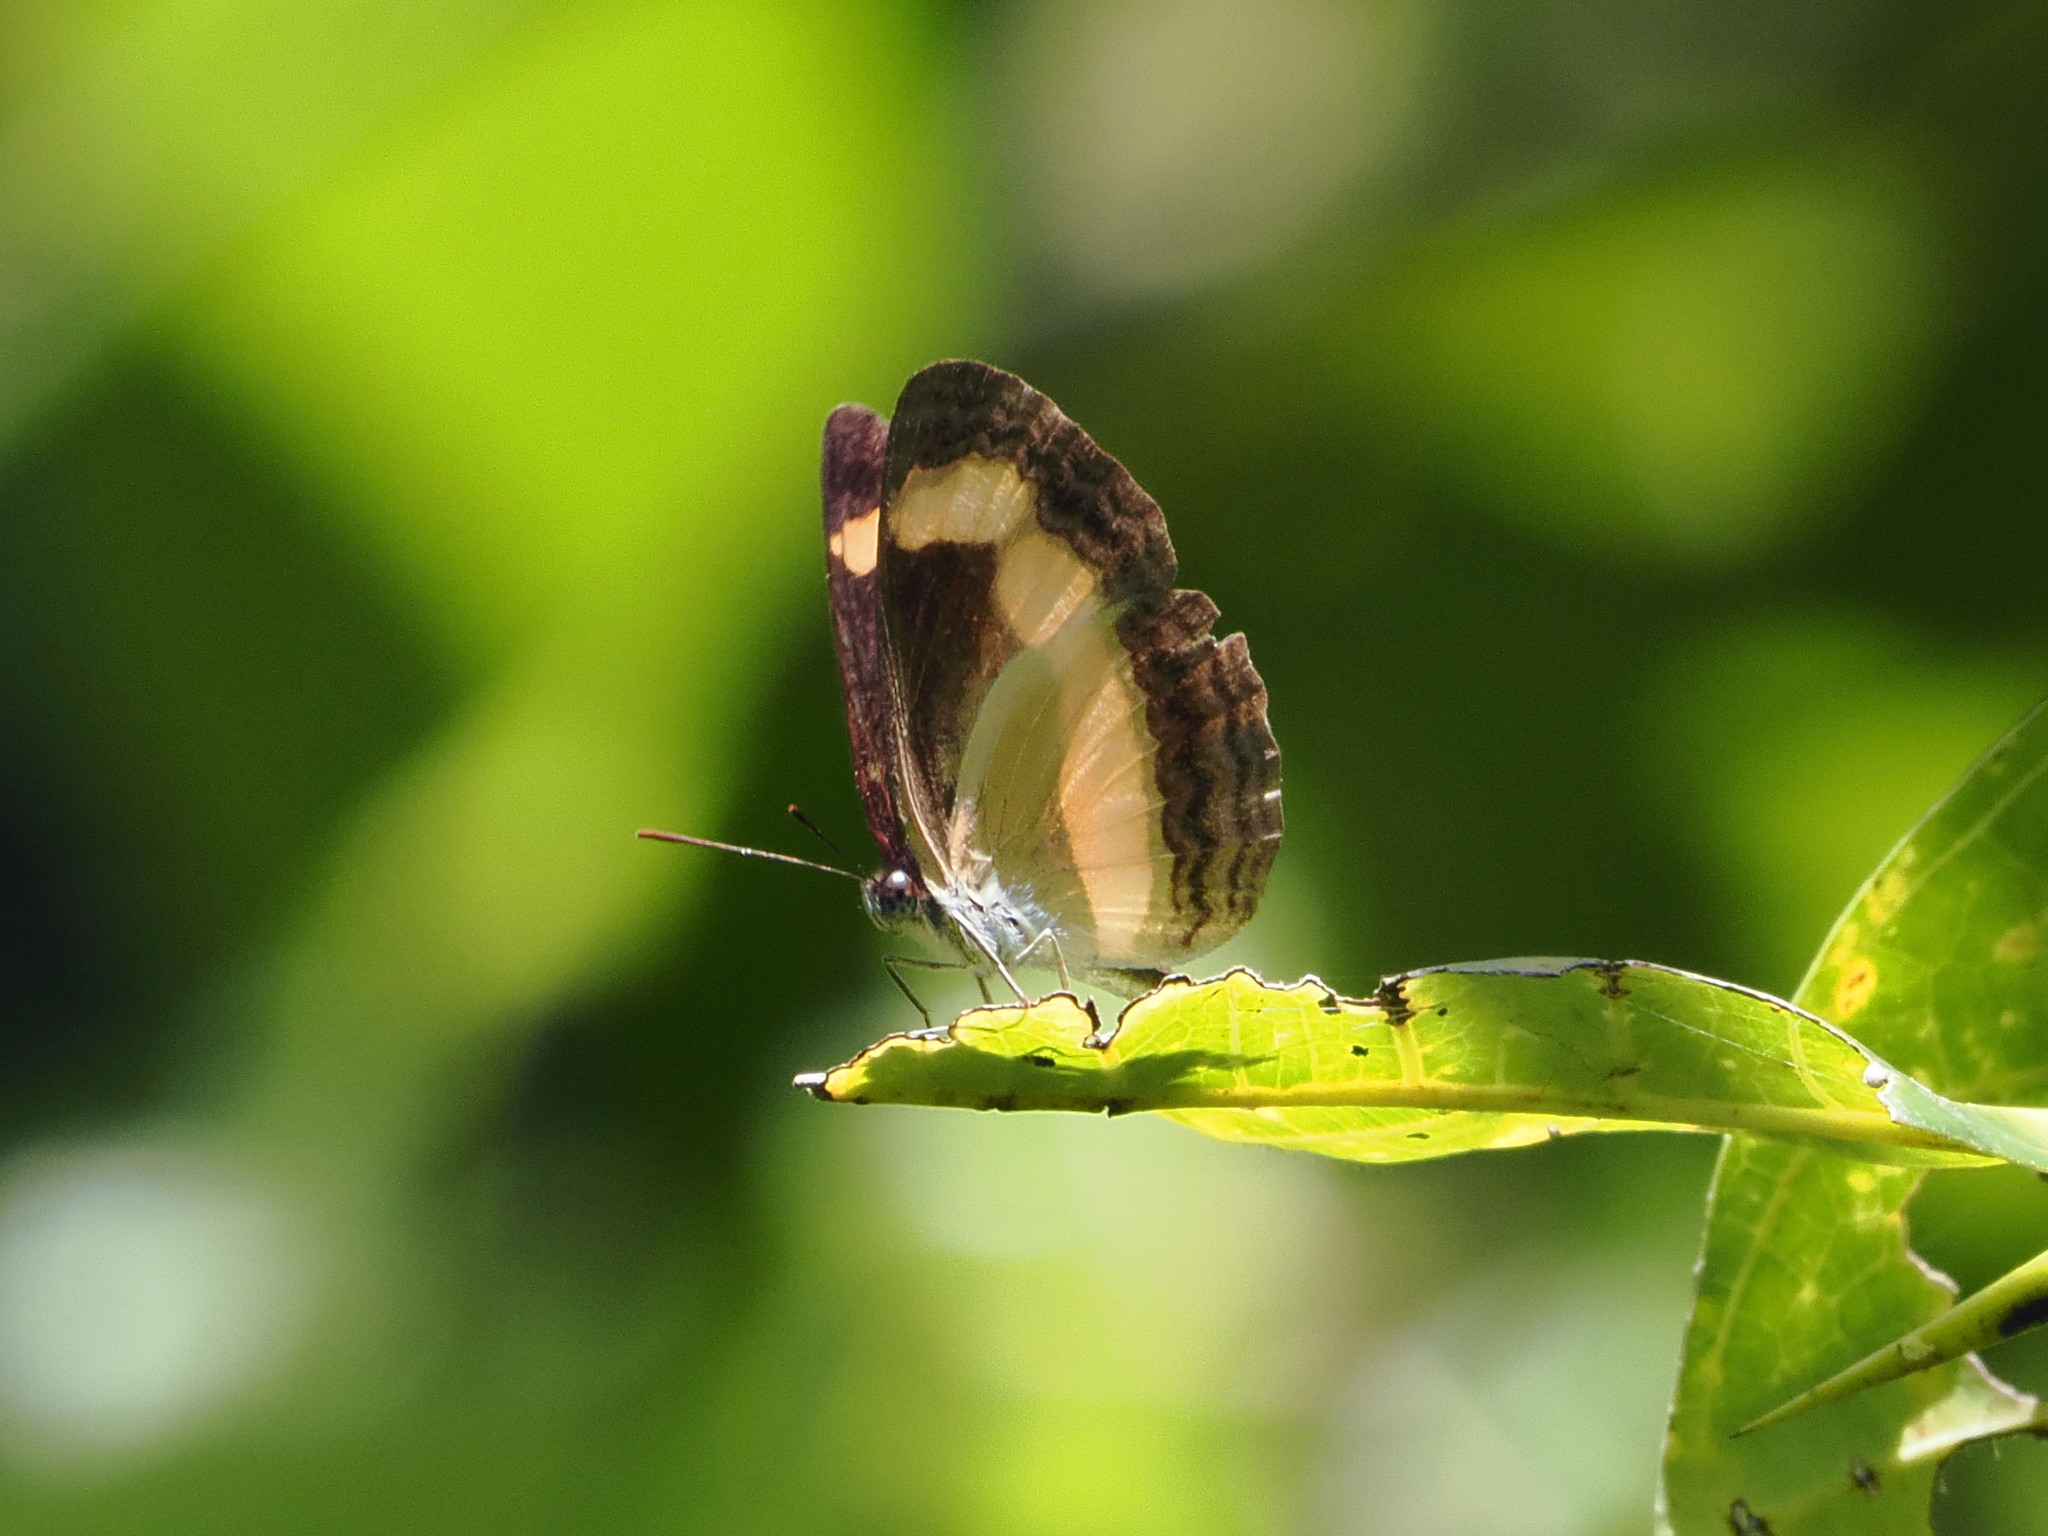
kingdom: Animalia
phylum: Arthropoda
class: Insecta
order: Lepidoptera
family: Nymphalidae
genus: Pantoporia
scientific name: Pantoporia consimilis
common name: Orange plane
